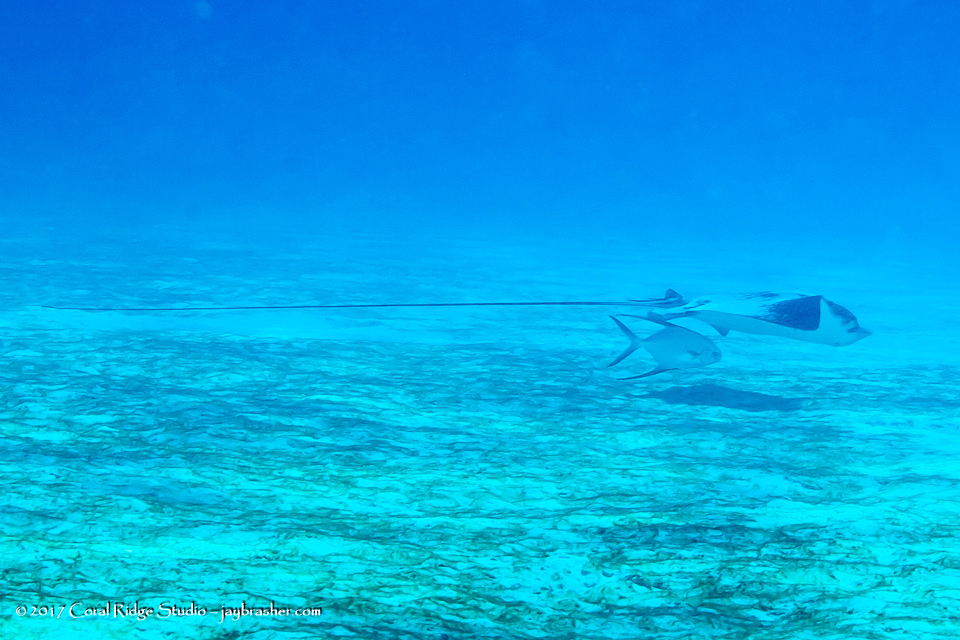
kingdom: Animalia
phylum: Chordata
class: Elasmobranchii
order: Myliobatiformes
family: Myliobatidae
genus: Aetobatus
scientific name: Aetobatus narinari
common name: Spotted eagle ray
